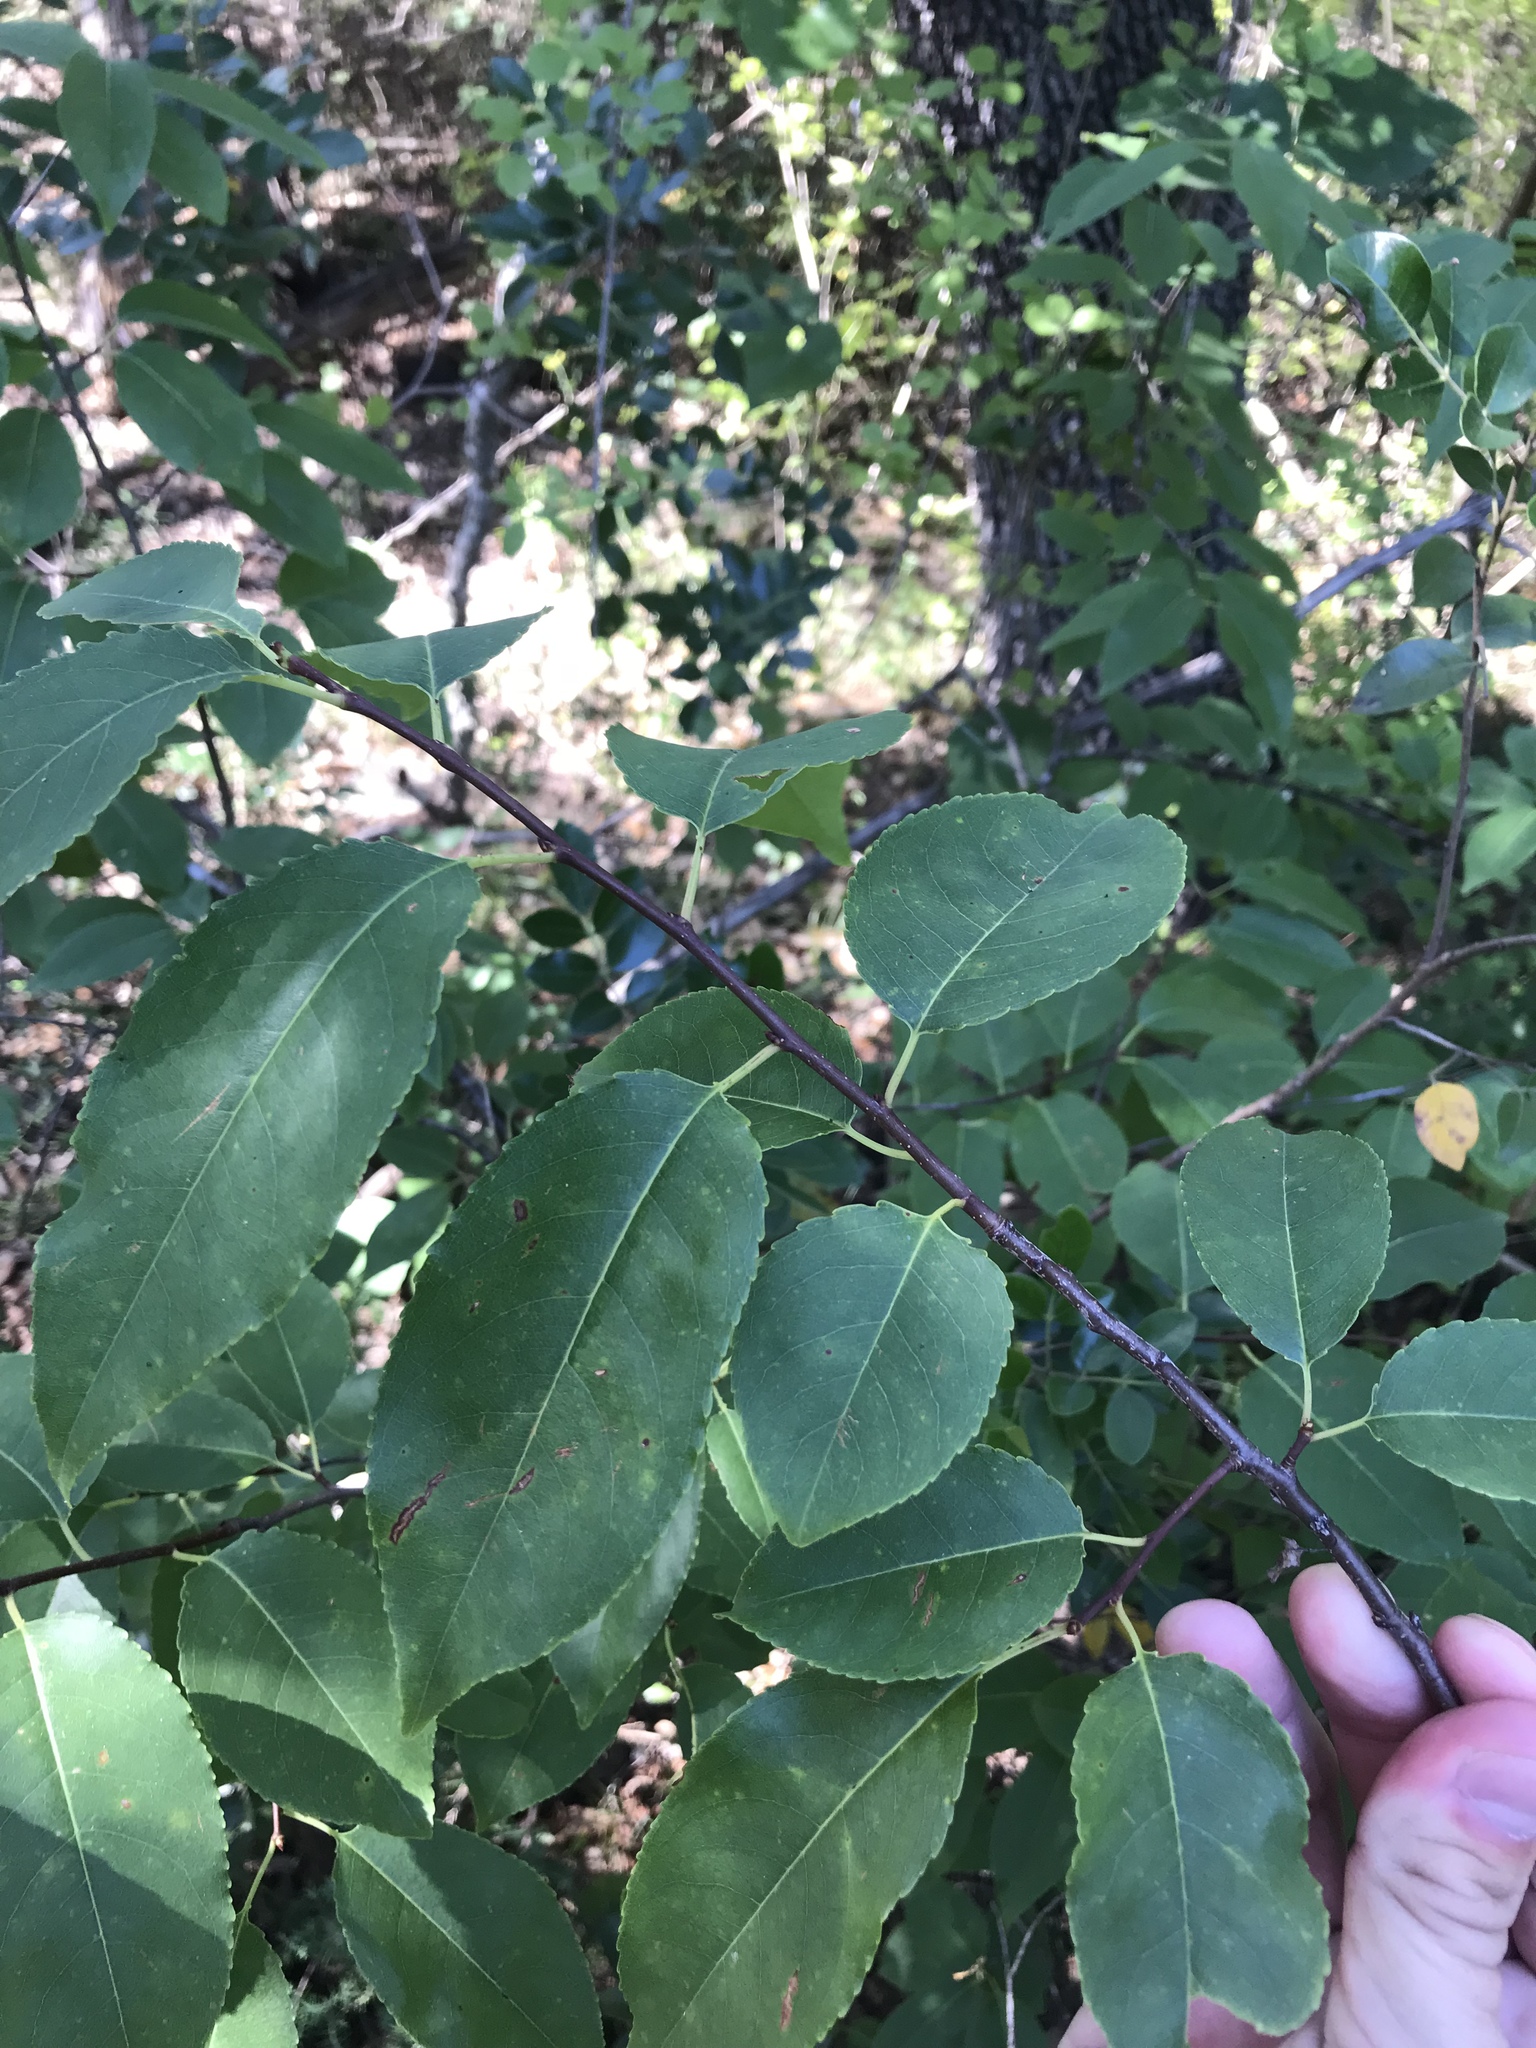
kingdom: Plantae
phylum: Tracheophyta
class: Magnoliopsida
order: Rosales
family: Rosaceae
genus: Prunus
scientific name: Prunus serotina
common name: Black cherry
